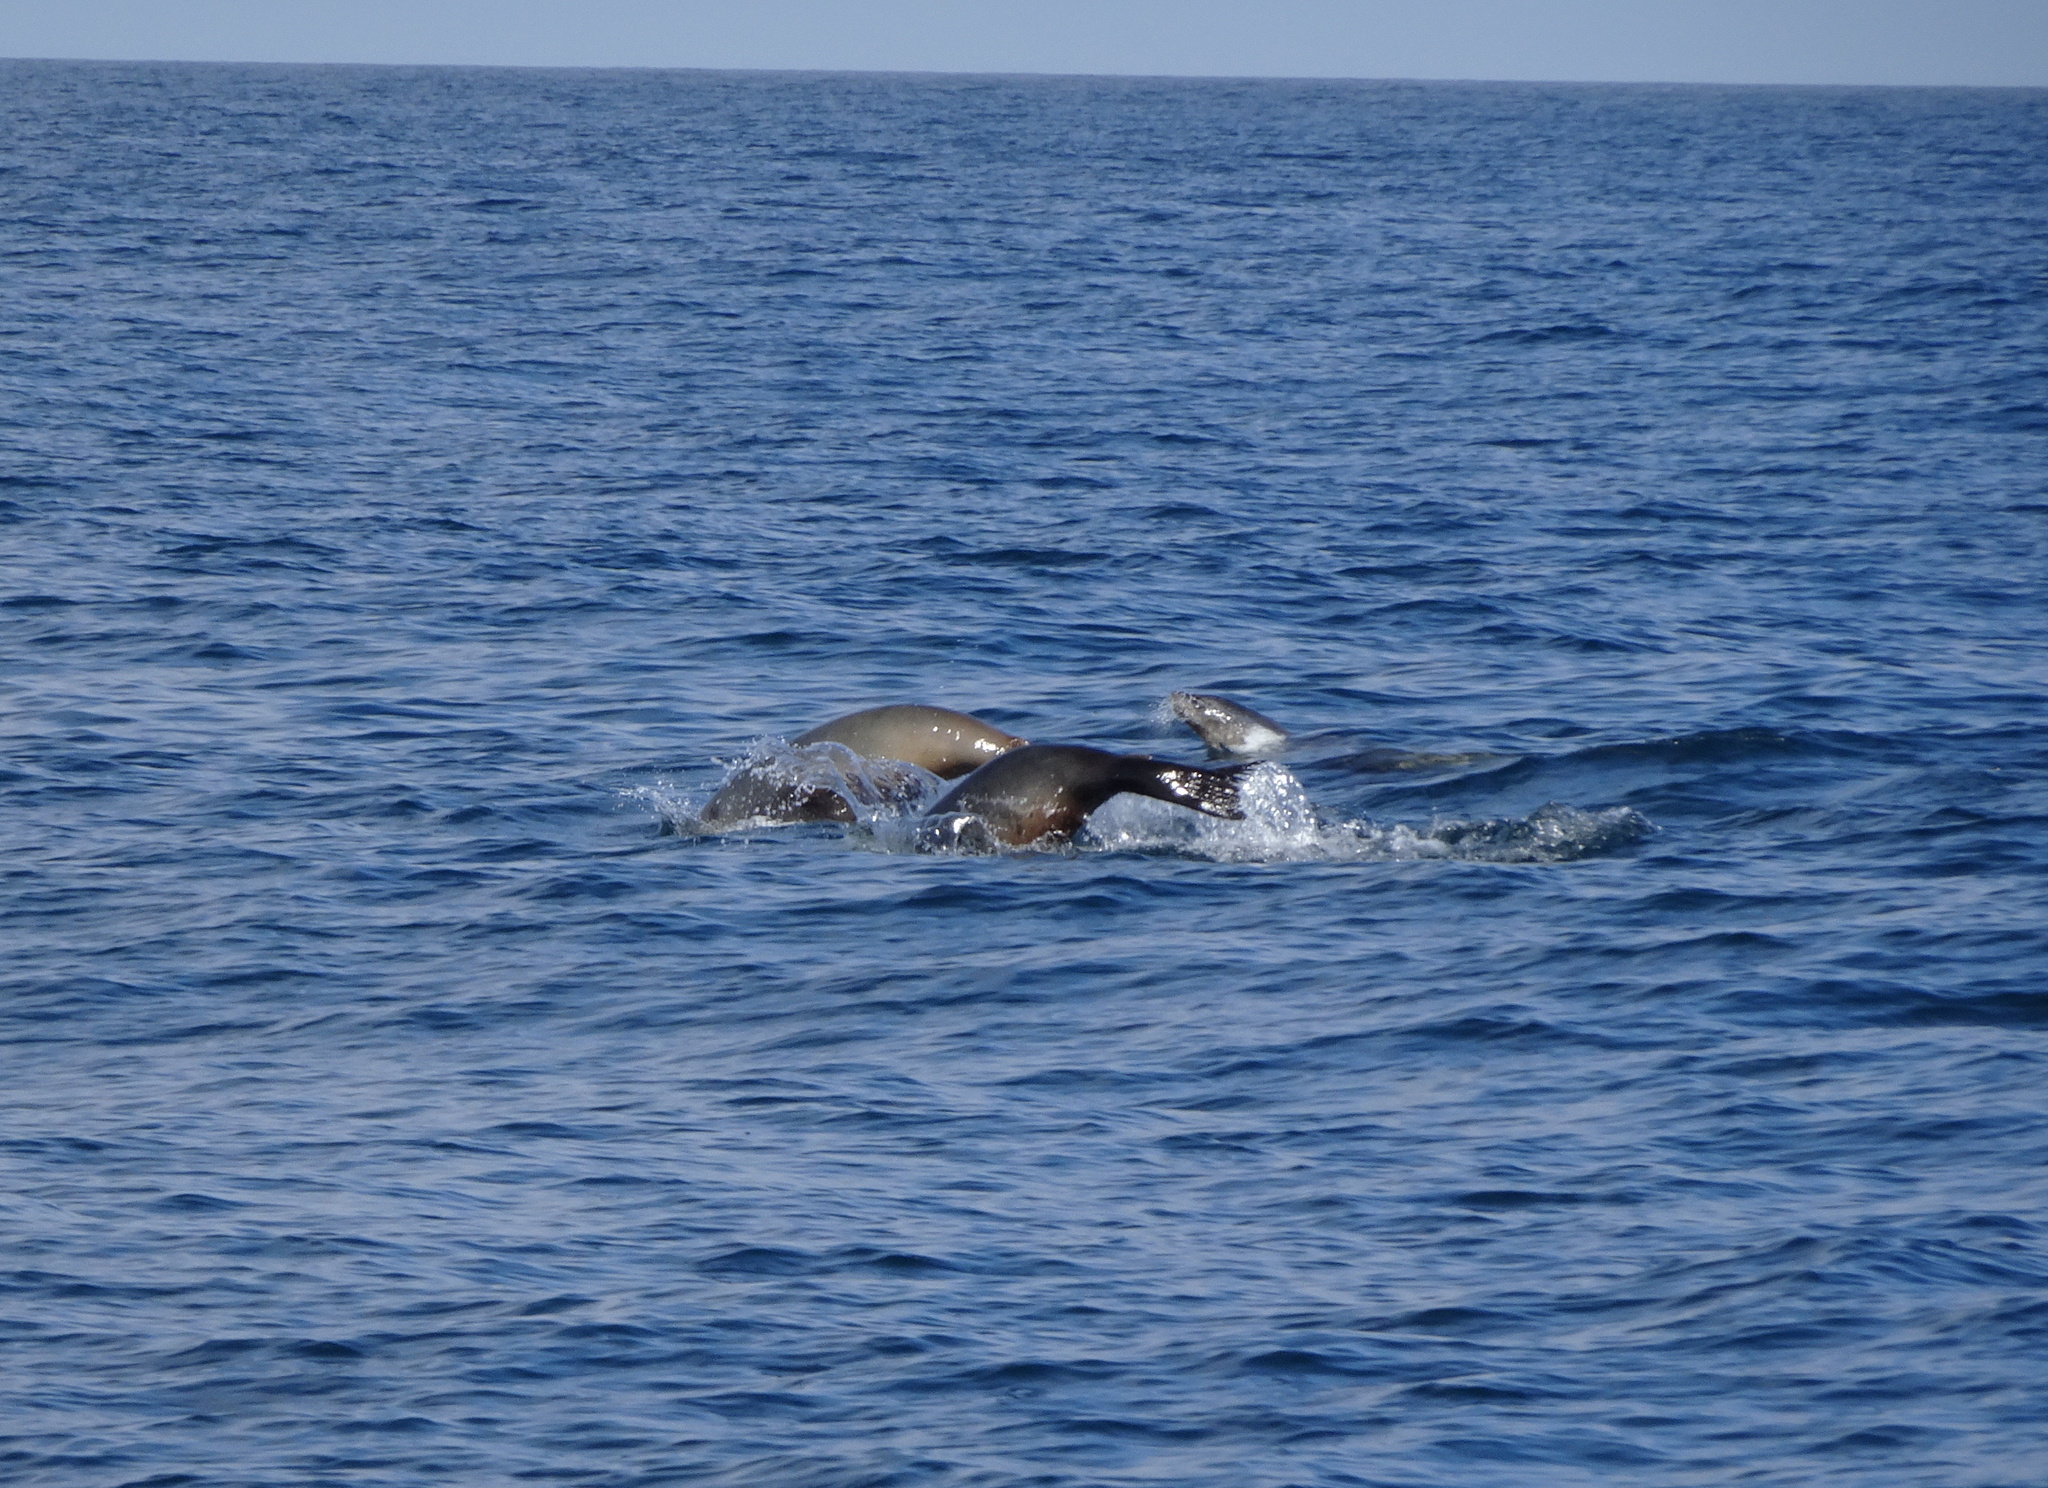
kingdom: Animalia
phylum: Chordata
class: Mammalia
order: Carnivora
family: Otariidae
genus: Zalophus
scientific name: Zalophus californianus
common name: California sea lion
